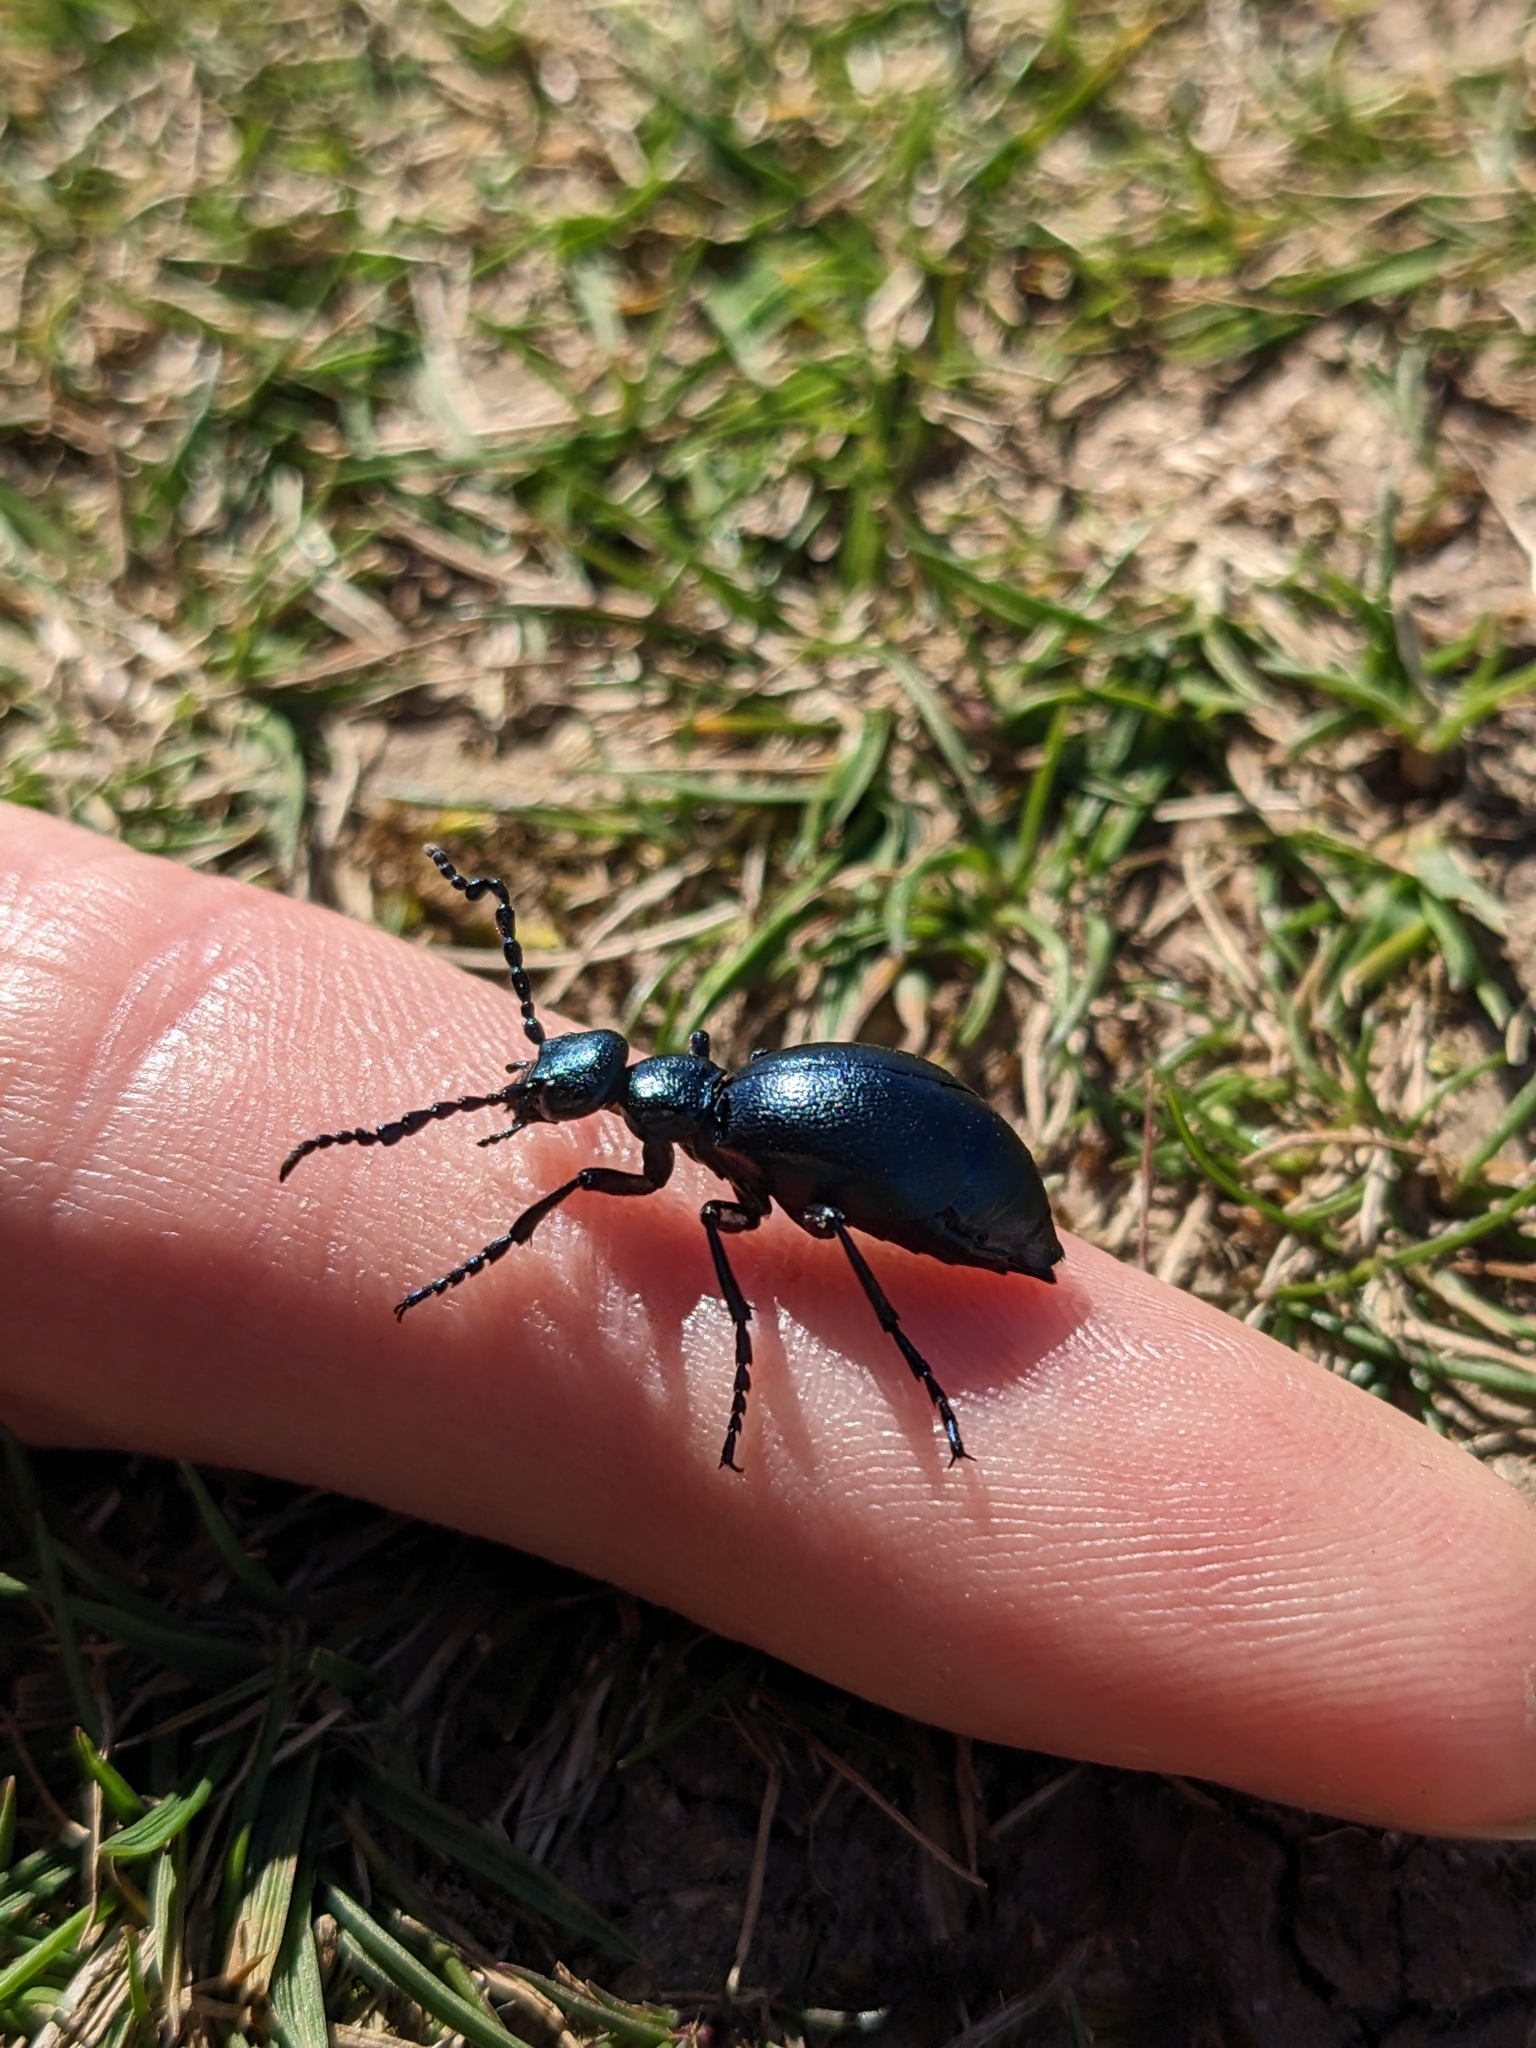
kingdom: Animalia
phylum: Arthropoda
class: Insecta
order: Coleoptera
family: Meloidae
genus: Meloe
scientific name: Meloe violaceus
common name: Violet oil-beetle
